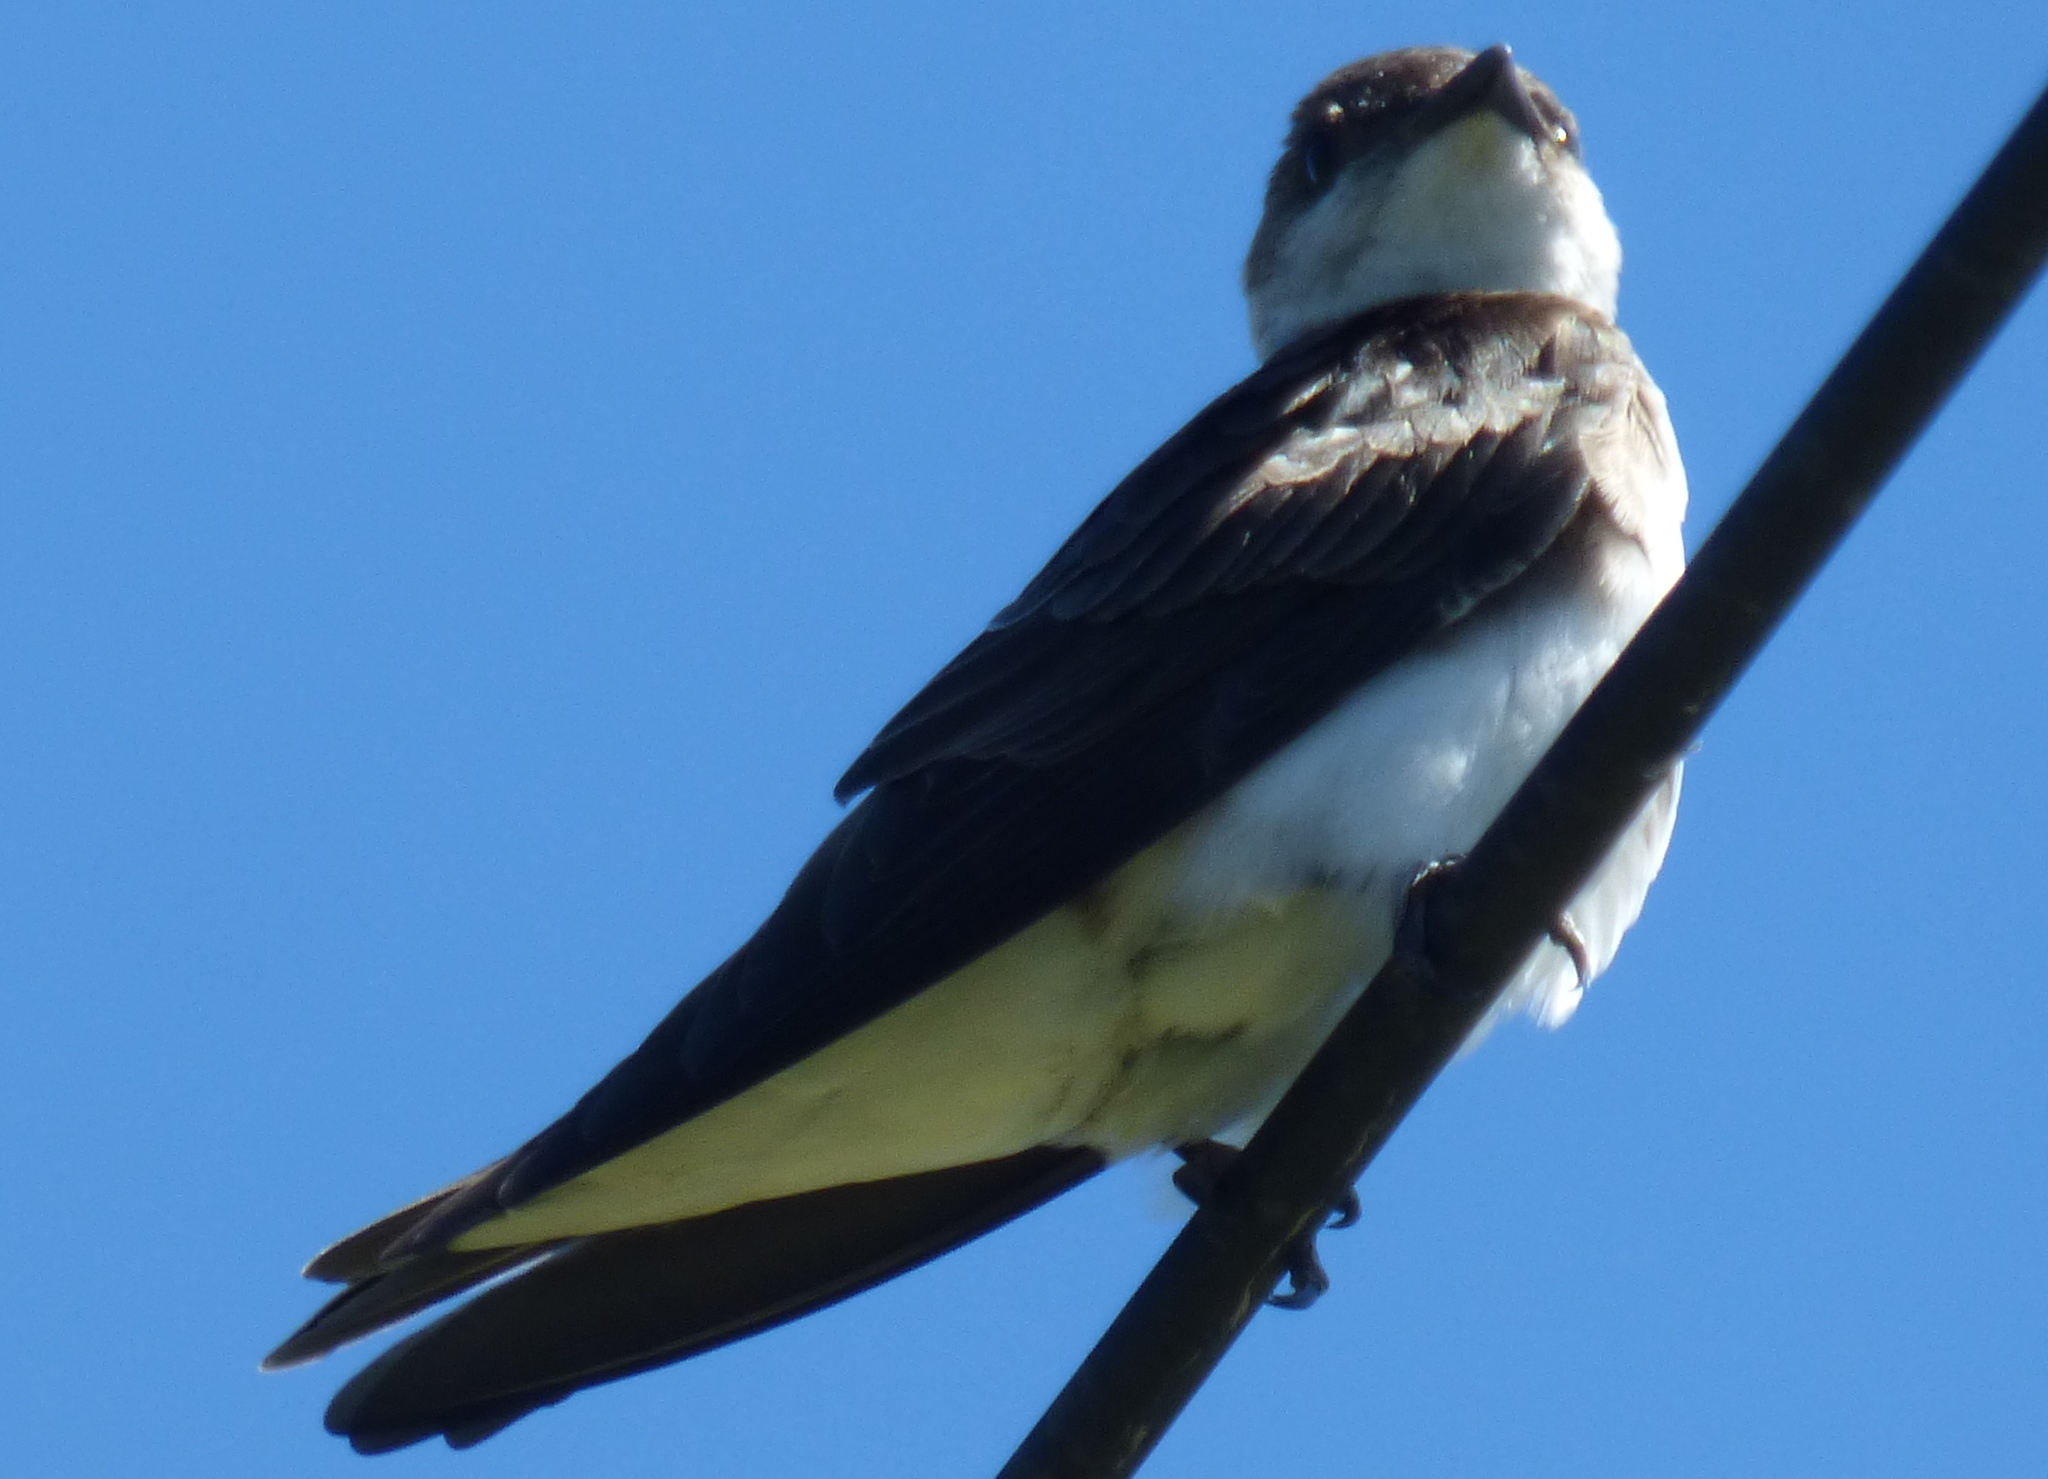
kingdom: Animalia
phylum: Chordata
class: Aves
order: Passeriformes
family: Hirundinidae
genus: Progne
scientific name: Progne tapera
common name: Brown-chested martin
